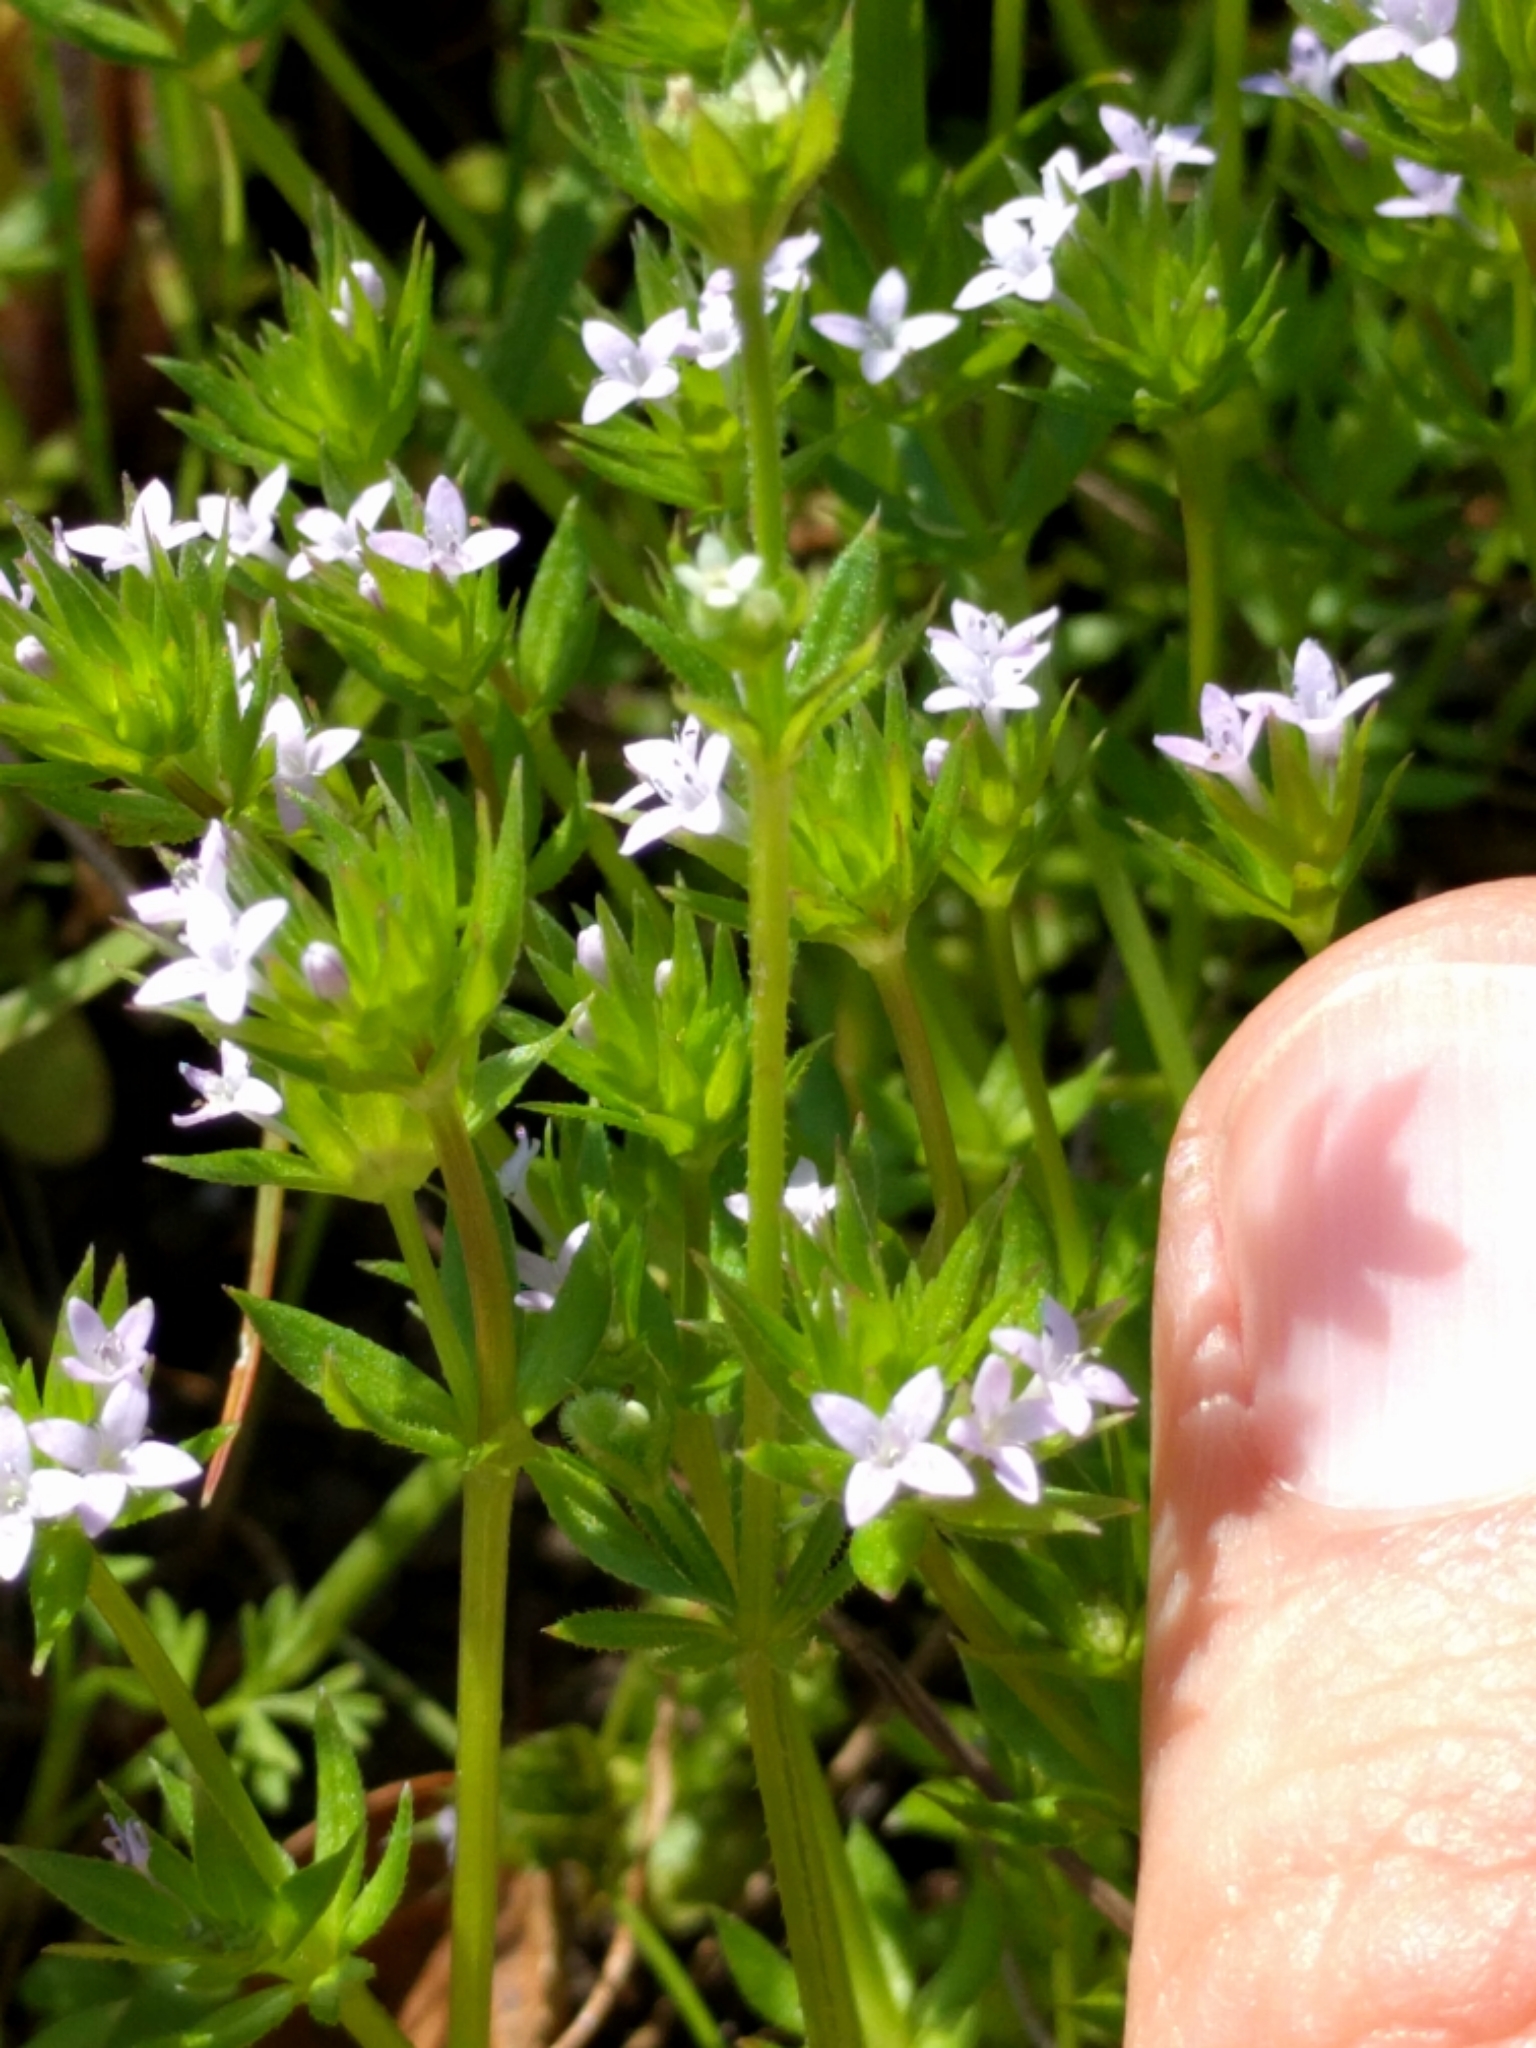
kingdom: Plantae
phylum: Tracheophyta
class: Magnoliopsida
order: Gentianales
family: Rubiaceae
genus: Sherardia
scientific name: Sherardia arvensis
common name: Field madder
